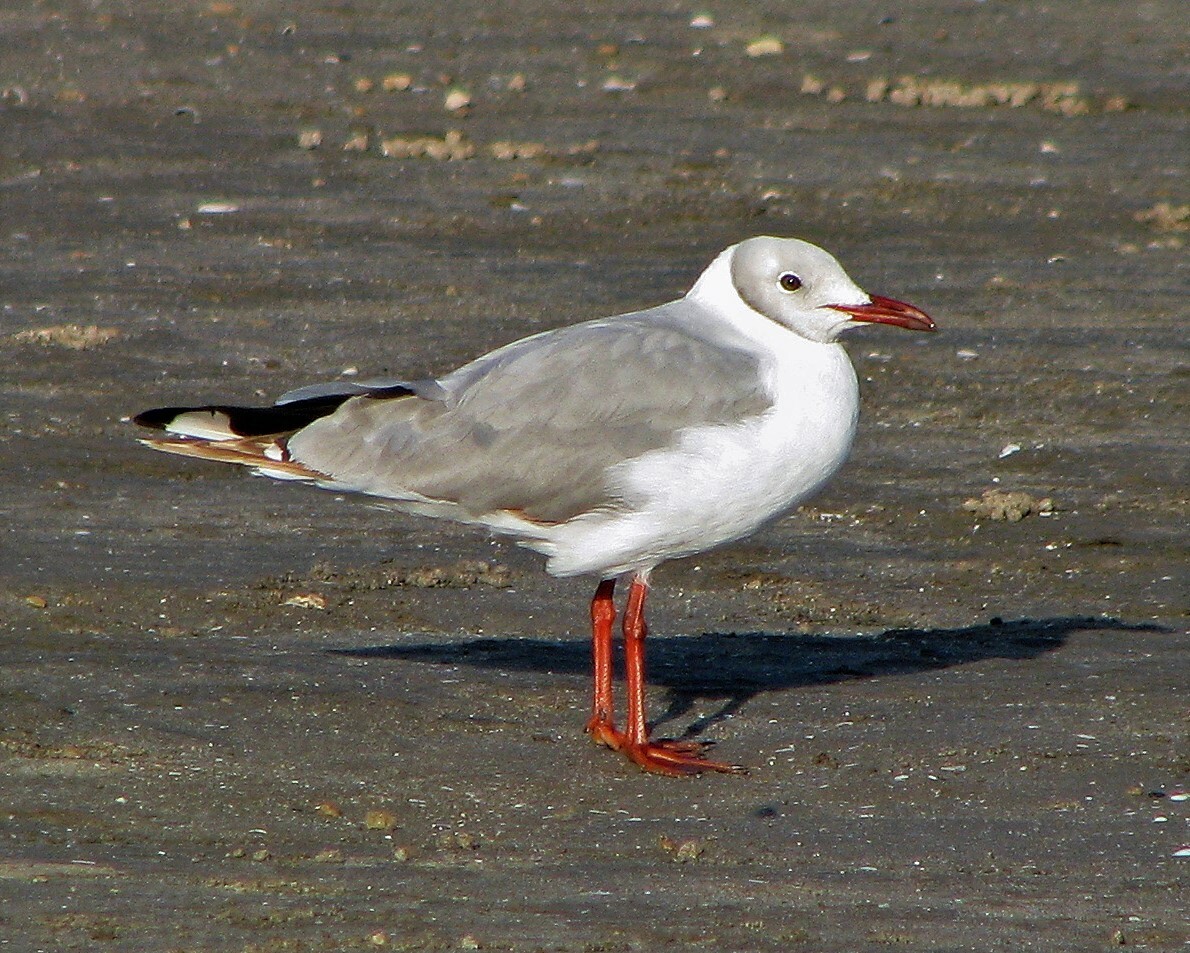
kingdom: Animalia
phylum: Chordata
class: Aves
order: Charadriiformes
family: Laridae
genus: Chroicocephalus
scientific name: Chroicocephalus cirrocephalus
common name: Grey-headed gull
